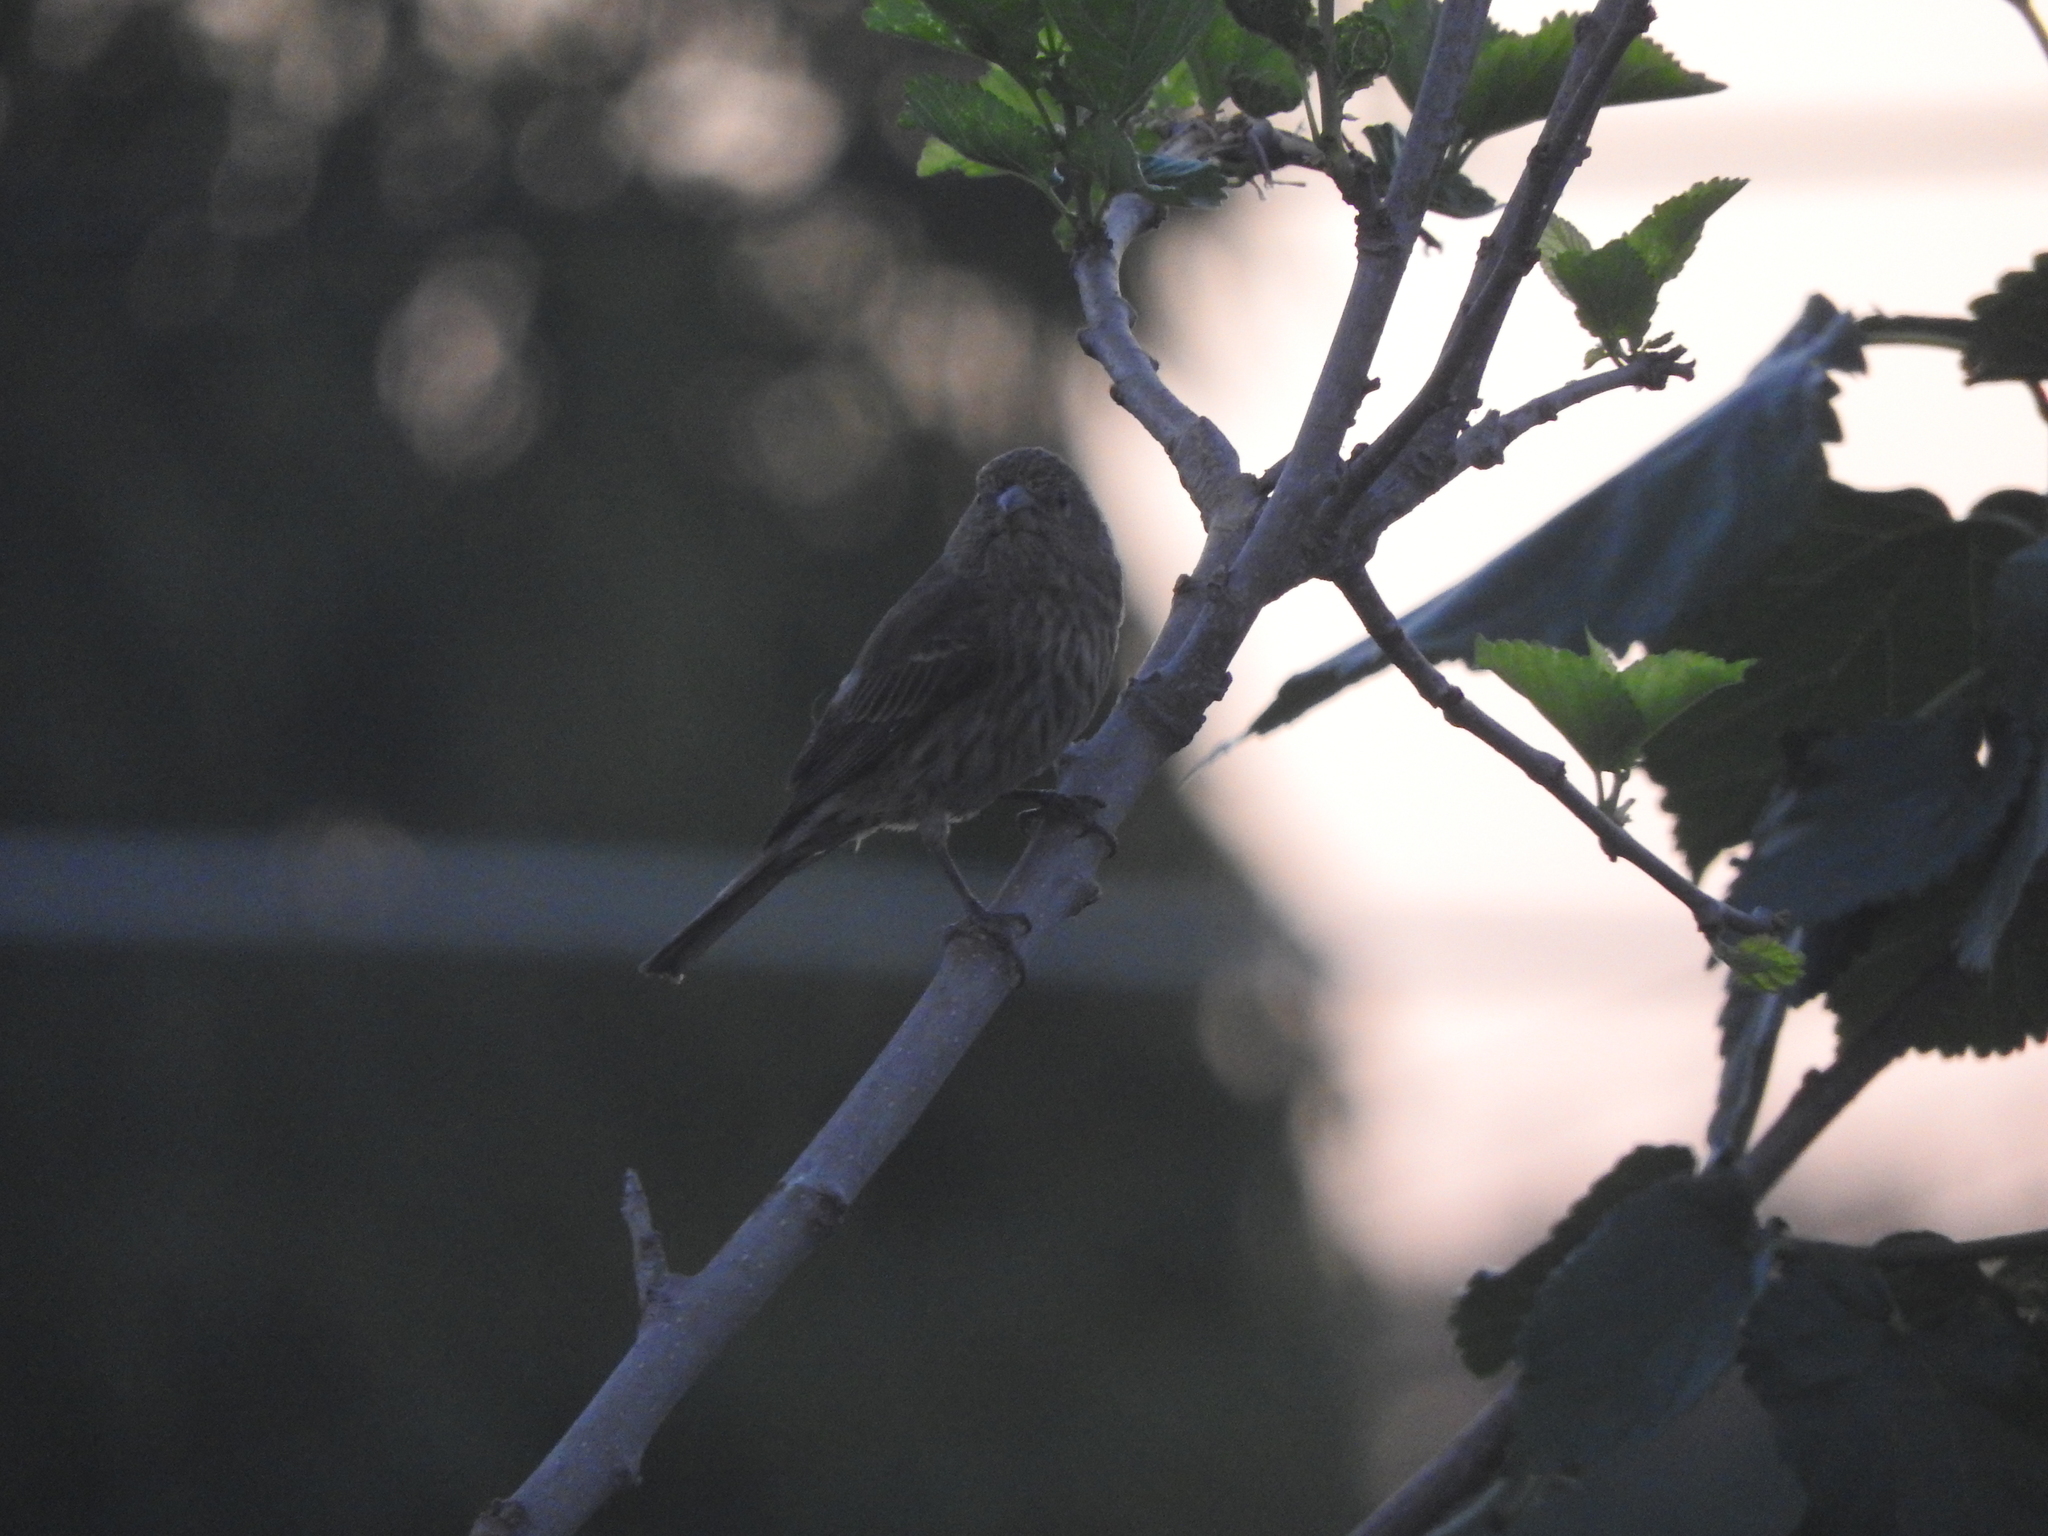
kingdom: Animalia
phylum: Chordata
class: Aves
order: Passeriformes
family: Fringillidae
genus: Haemorhous
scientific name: Haemorhous mexicanus
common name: House finch
